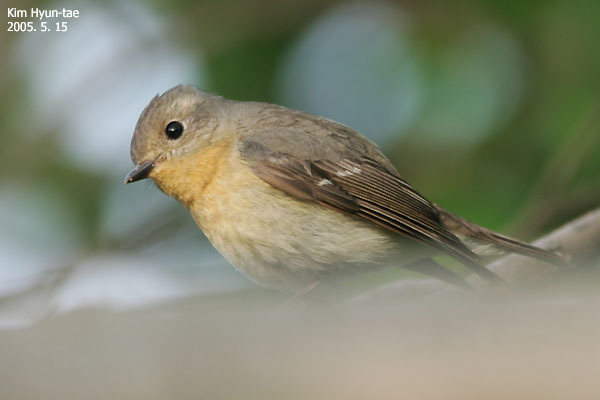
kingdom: Animalia
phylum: Chordata
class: Aves
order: Passeriformes
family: Muscicapidae
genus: Ficedula
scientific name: Ficedula mugimaki
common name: Mugimaki flycatcher
